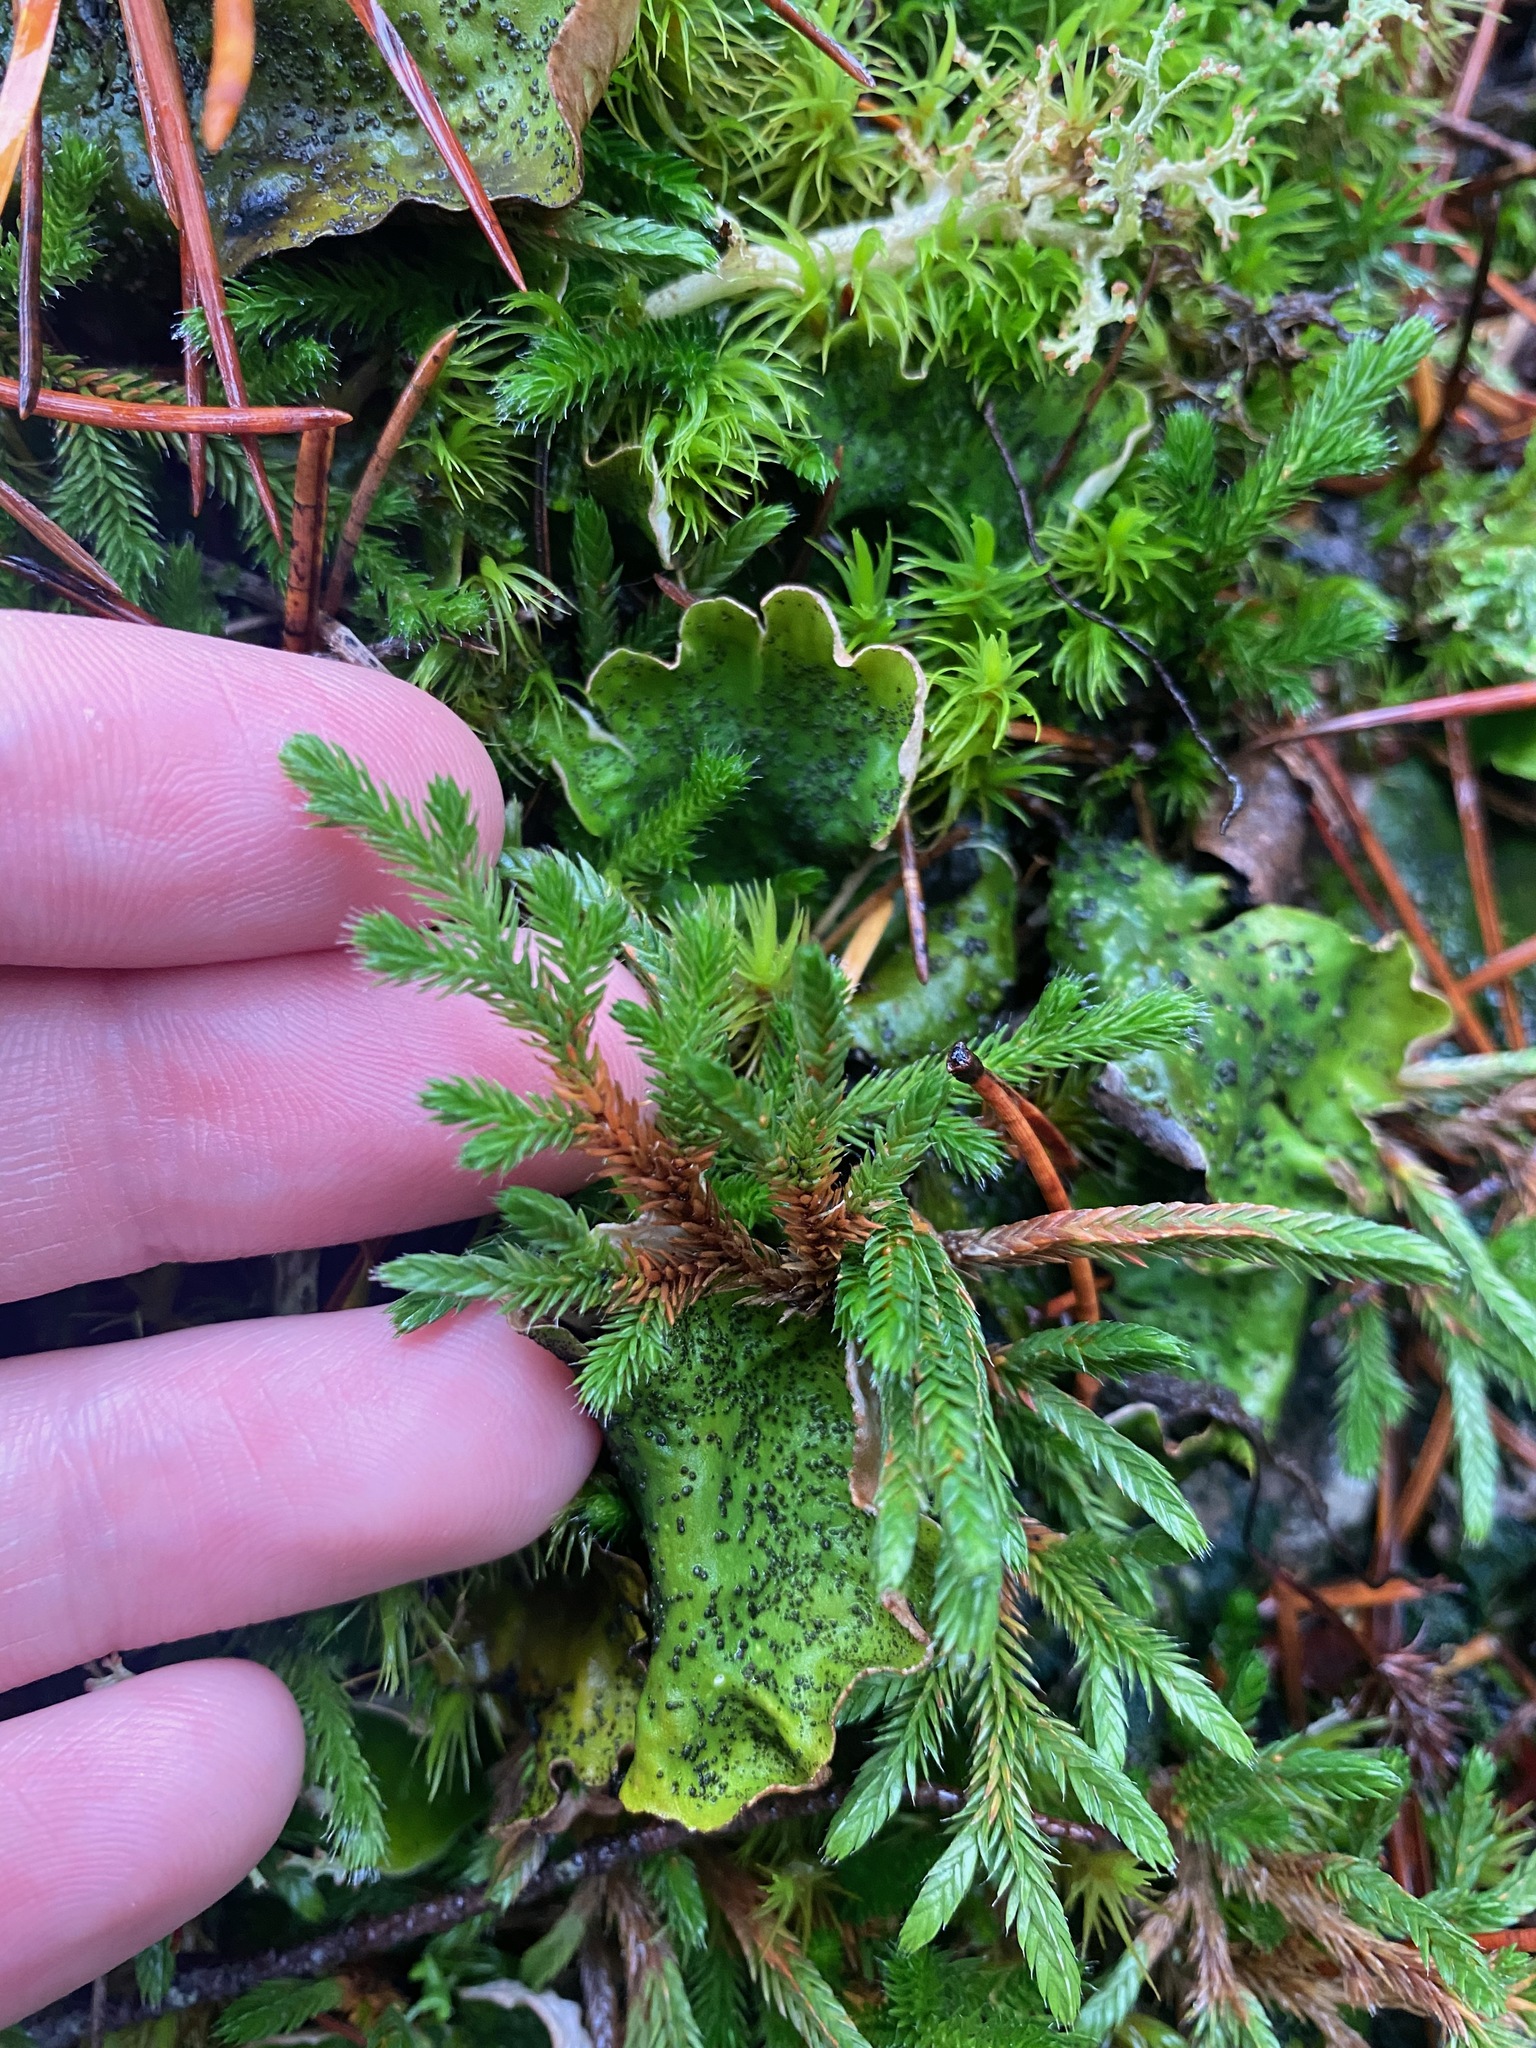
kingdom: Plantae
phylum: Tracheophyta
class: Lycopodiopsida
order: Selaginellales
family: Selaginellaceae
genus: Selaginella
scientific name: Selaginella wallacei
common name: Wallace's selaginella
